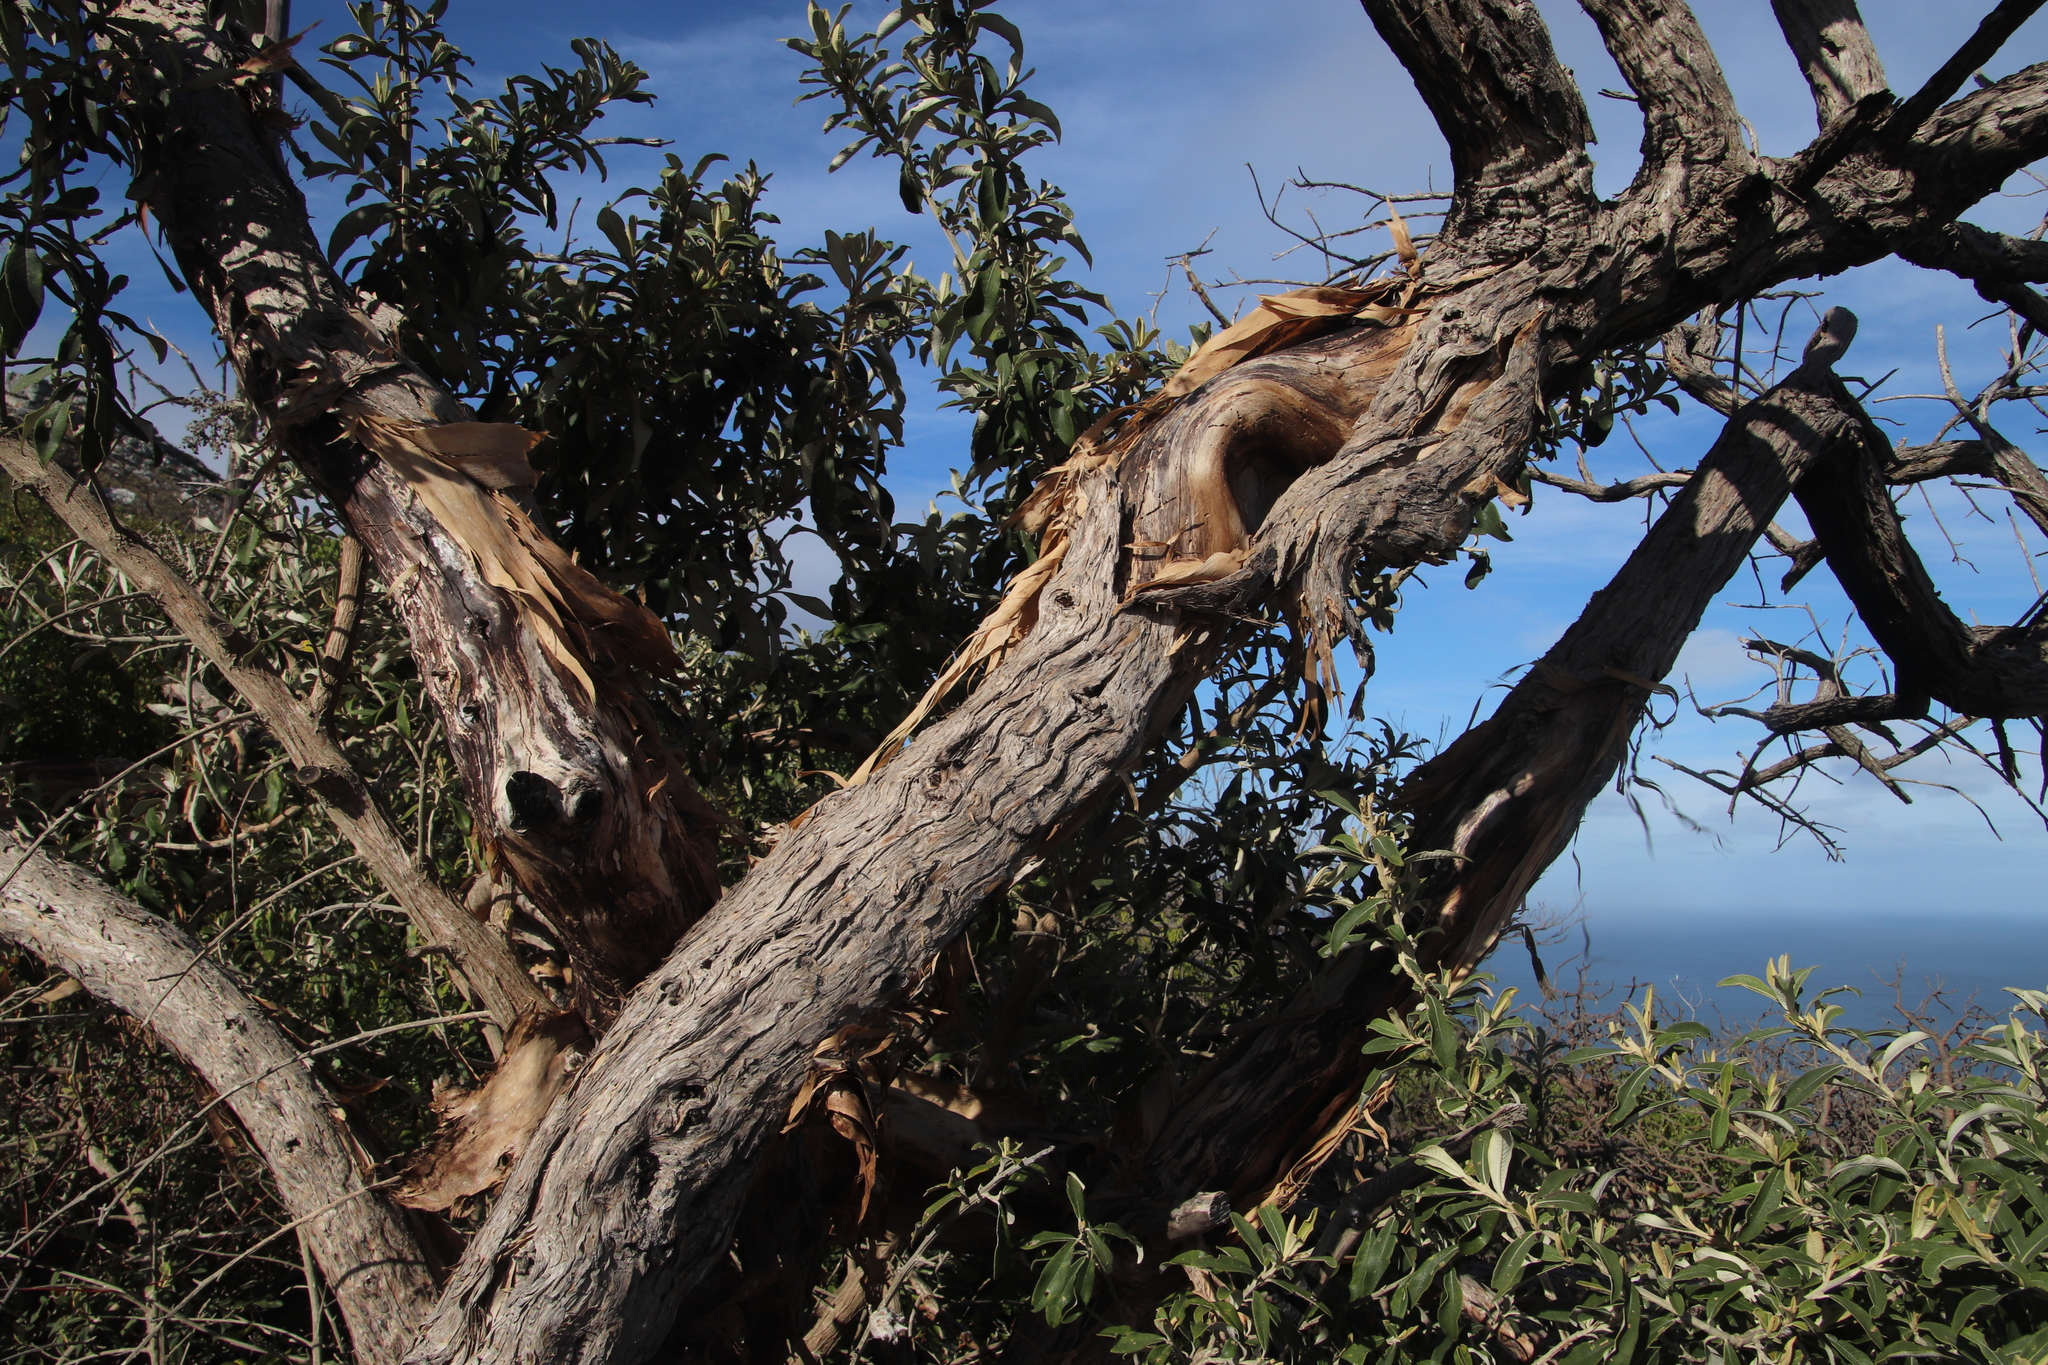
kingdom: Plantae
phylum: Tracheophyta
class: Magnoliopsida
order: Asterales
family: Asteraceae
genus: Tarchonanthus
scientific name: Tarchonanthus littoralis
